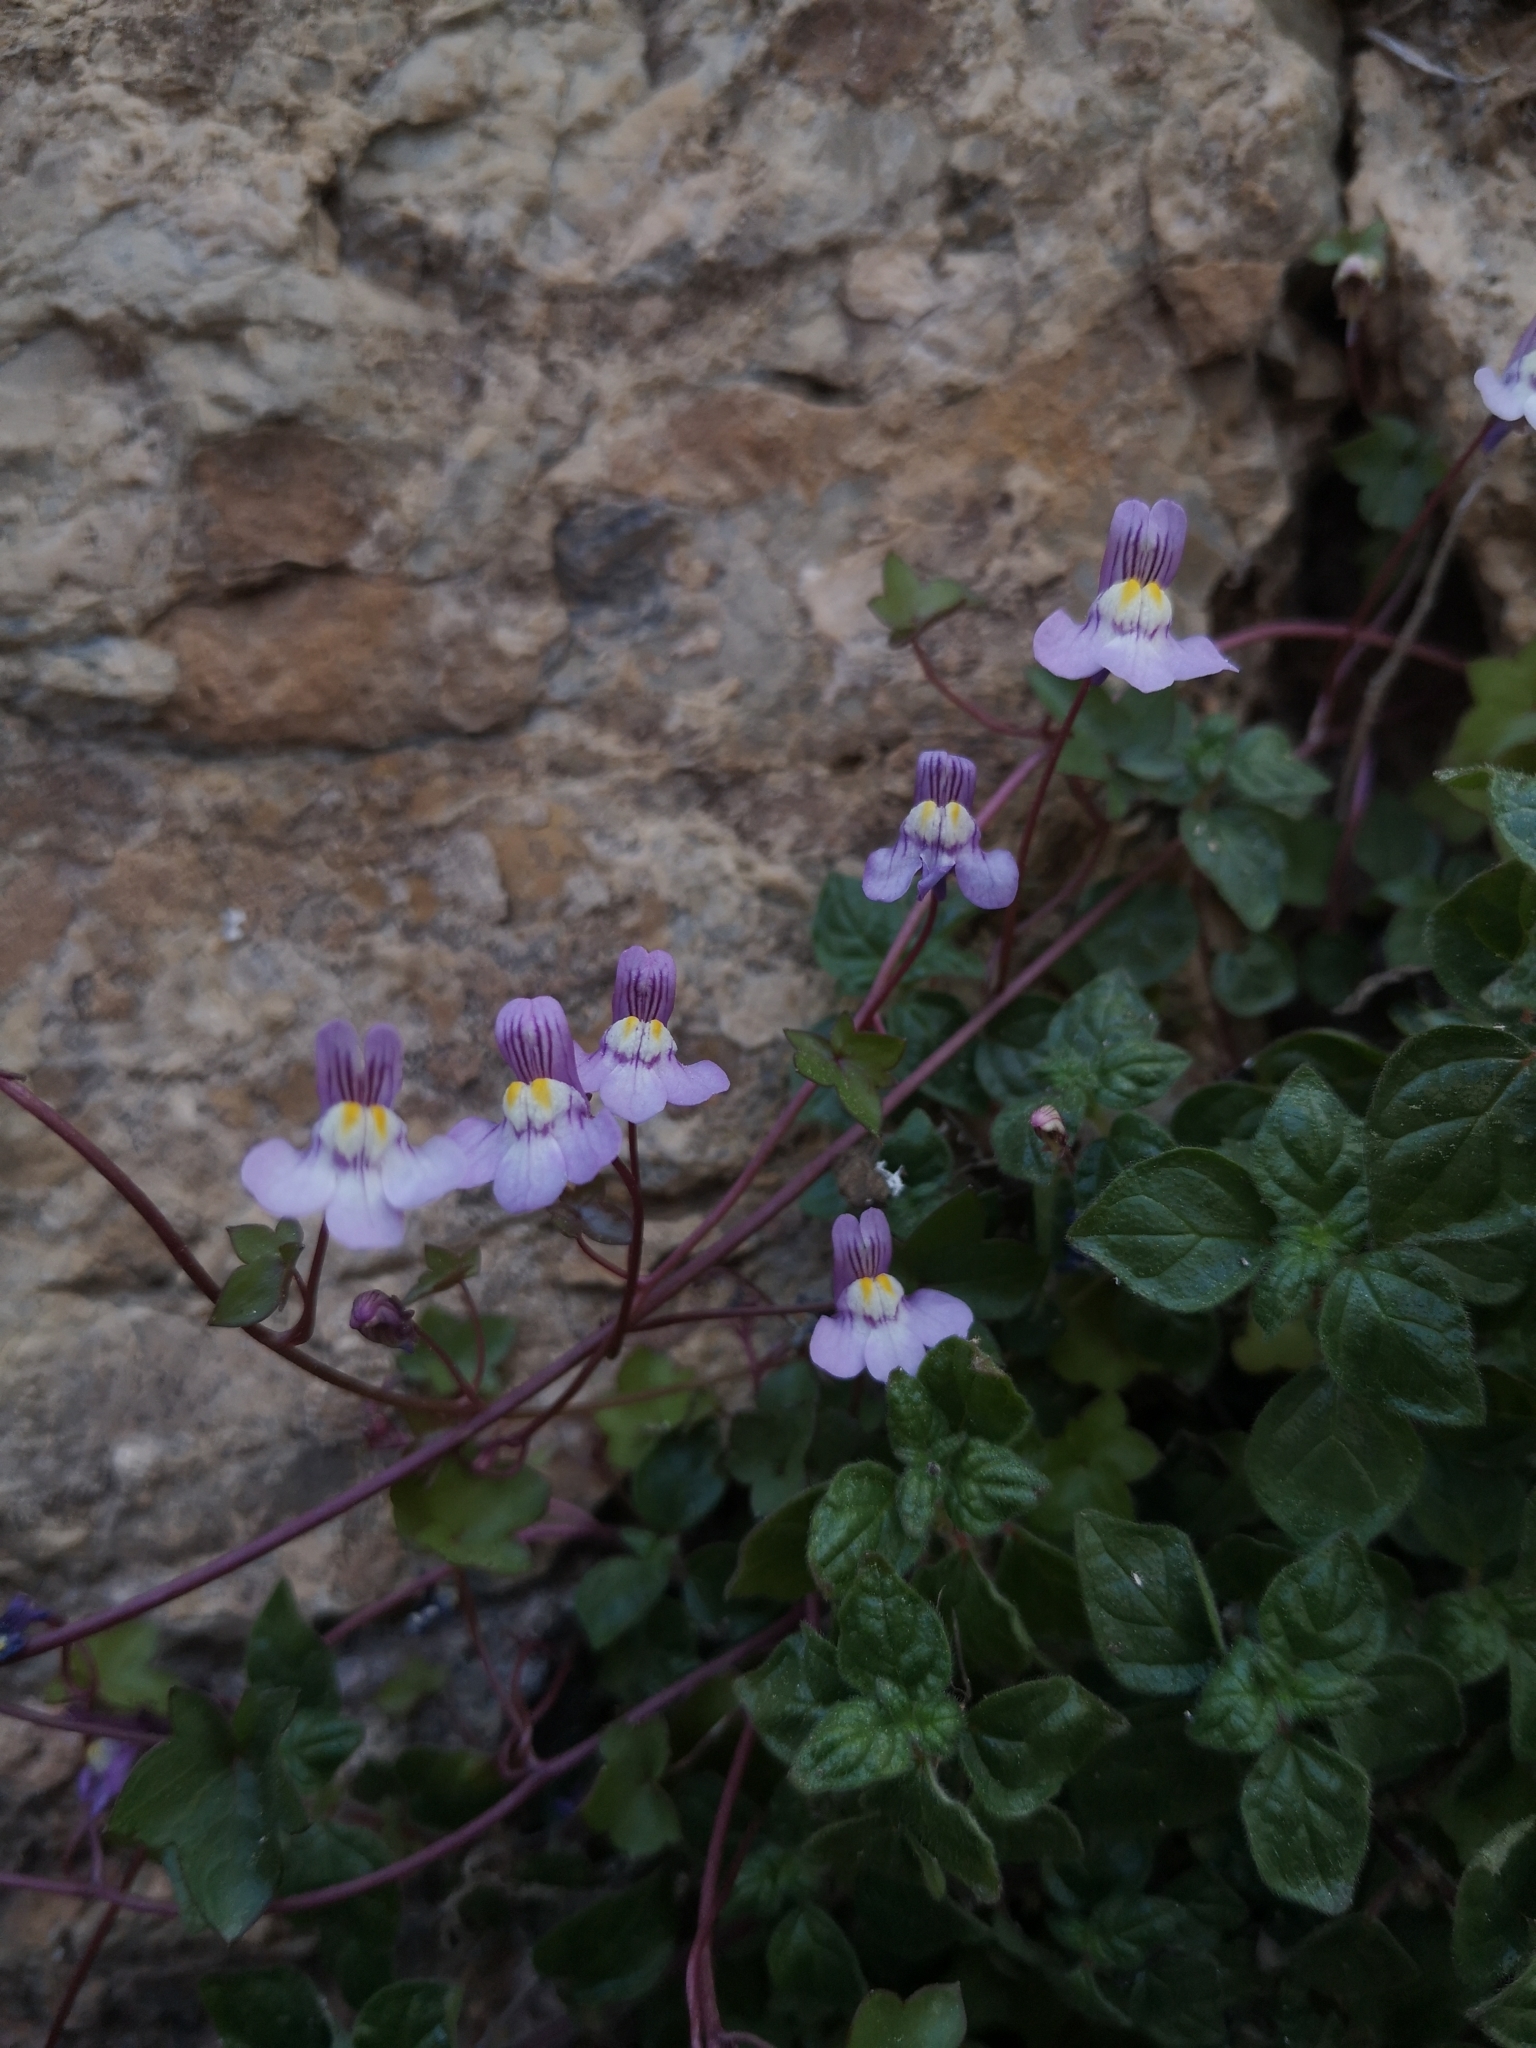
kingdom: Plantae
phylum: Tracheophyta
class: Magnoliopsida
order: Lamiales
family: Plantaginaceae
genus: Cymbalaria
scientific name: Cymbalaria muralis
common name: Ivy-leaved toadflax
